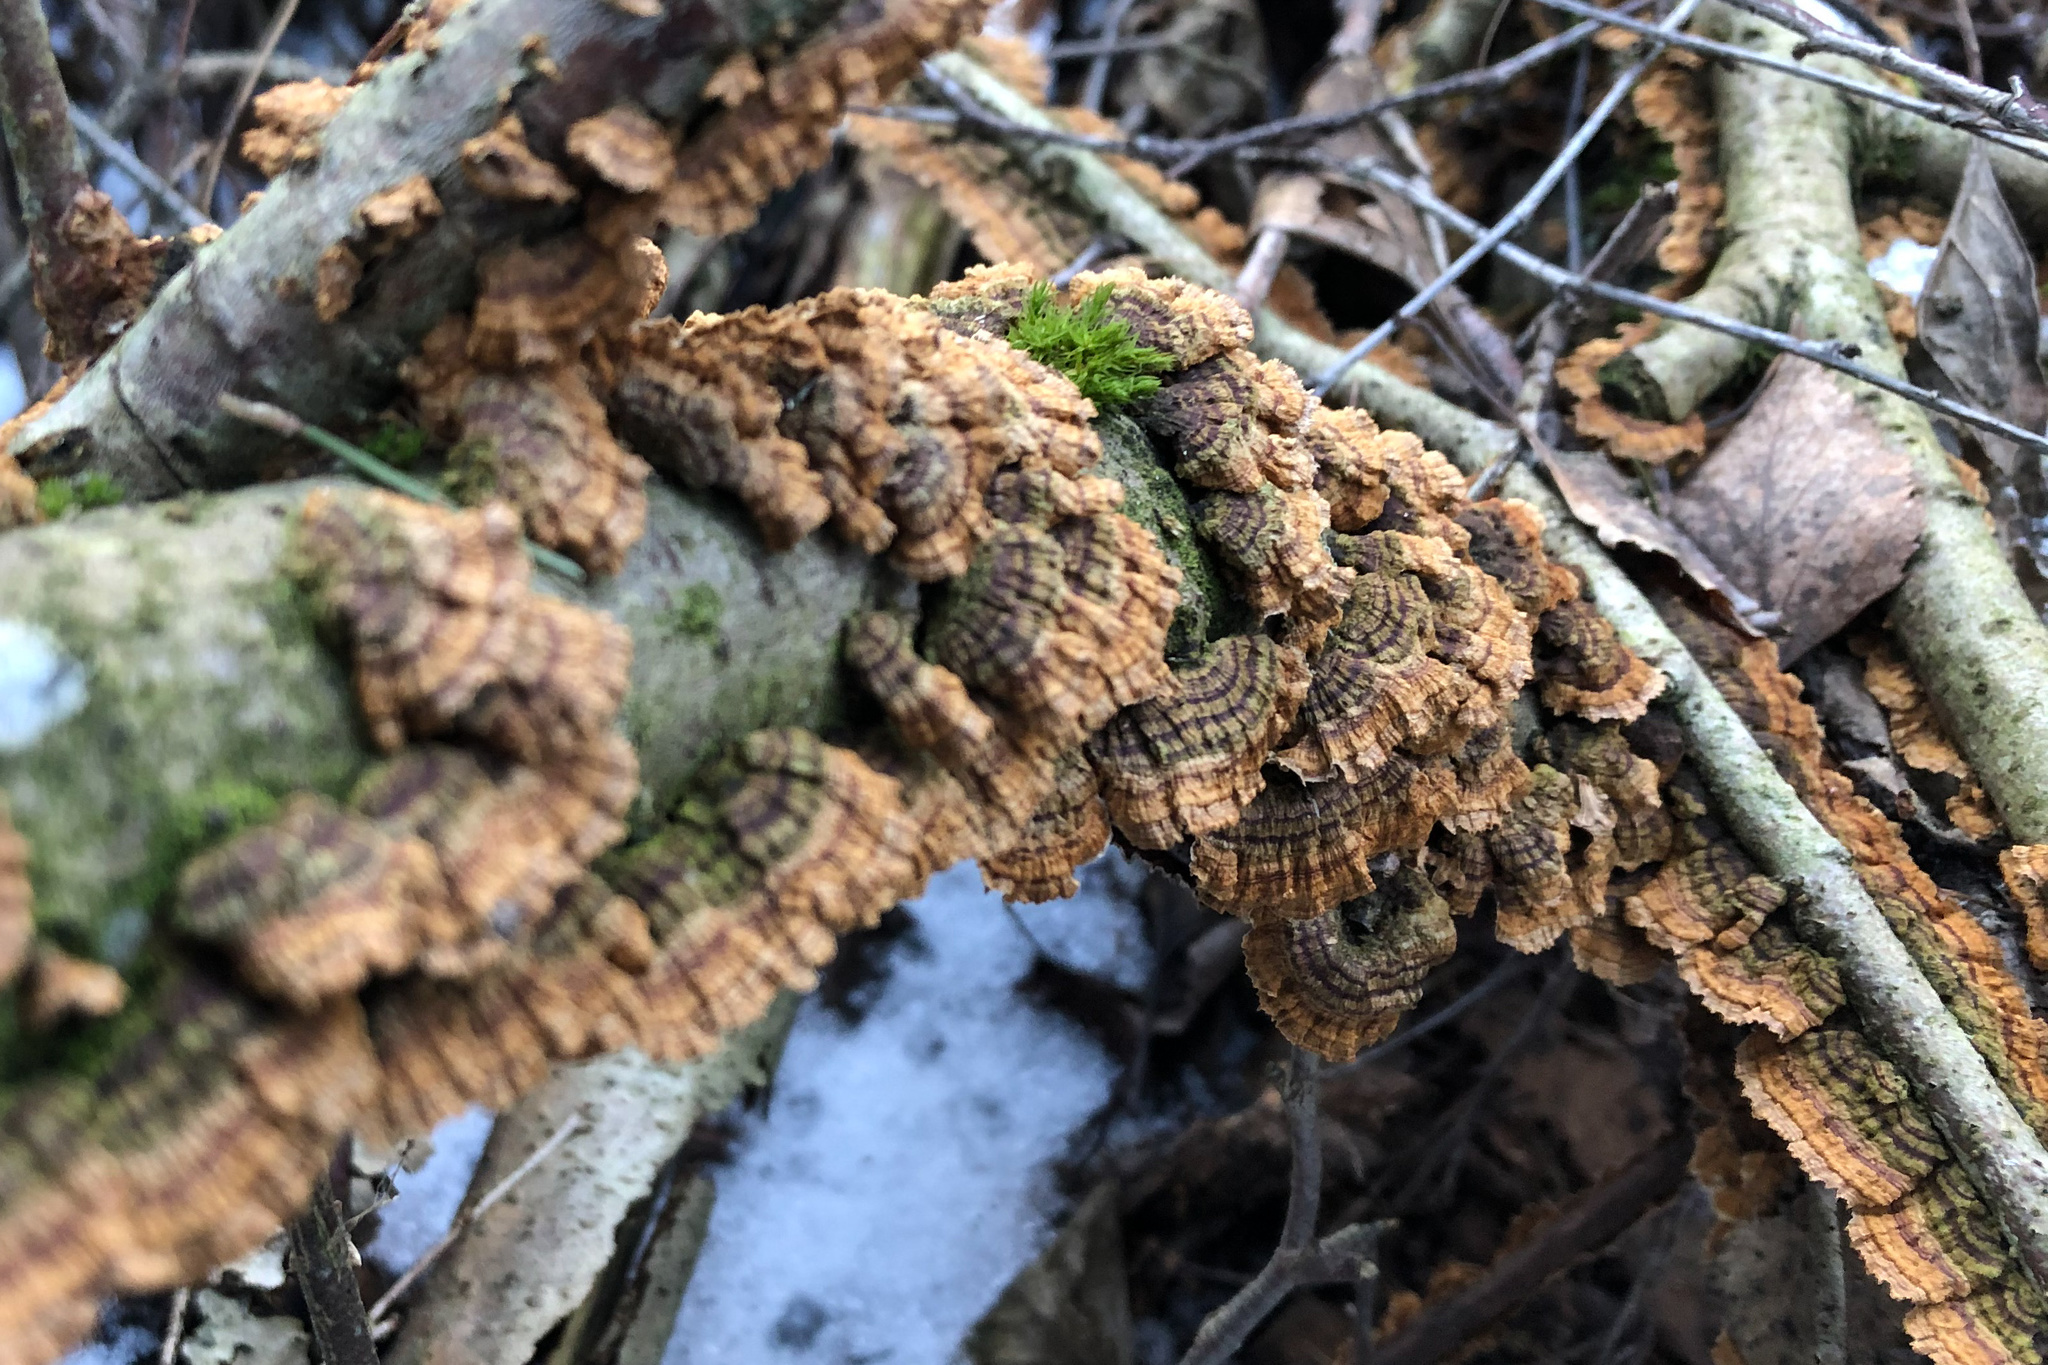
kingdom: Fungi
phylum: Basidiomycota
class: Agaricomycetes
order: Hymenochaetales
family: Hymenochaetaceae
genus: Hydnoporia
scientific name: Hydnoporia tabacina
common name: Willow glue
